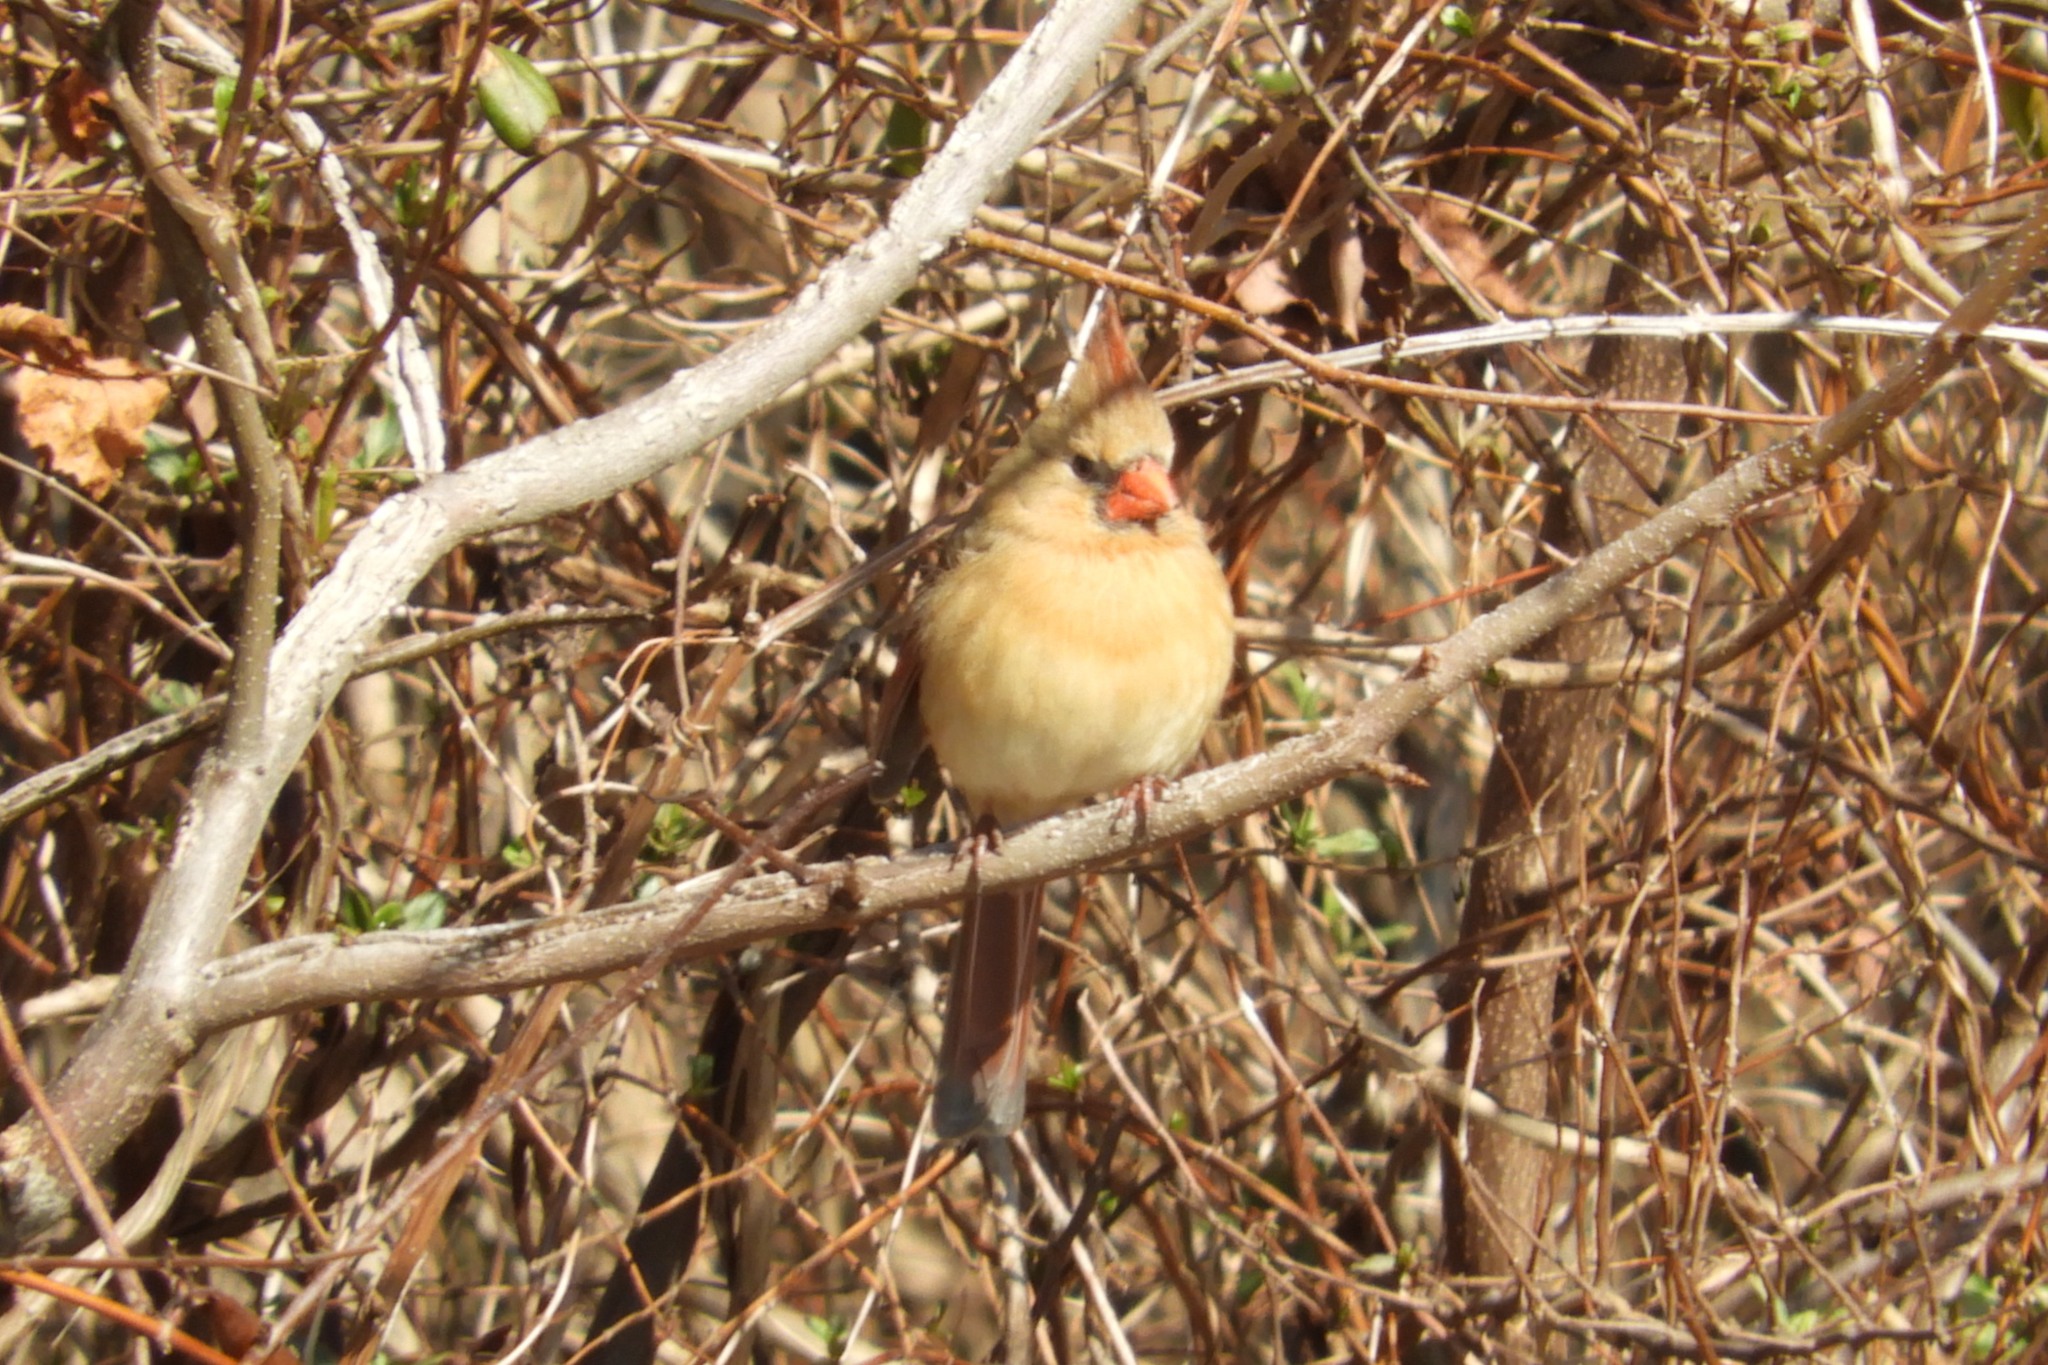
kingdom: Animalia
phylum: Chordata
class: Aves
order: Passeriformes
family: Cardinalidae
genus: Cardinalis
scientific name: Cardinalis cardinalis
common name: Northern cardinal
